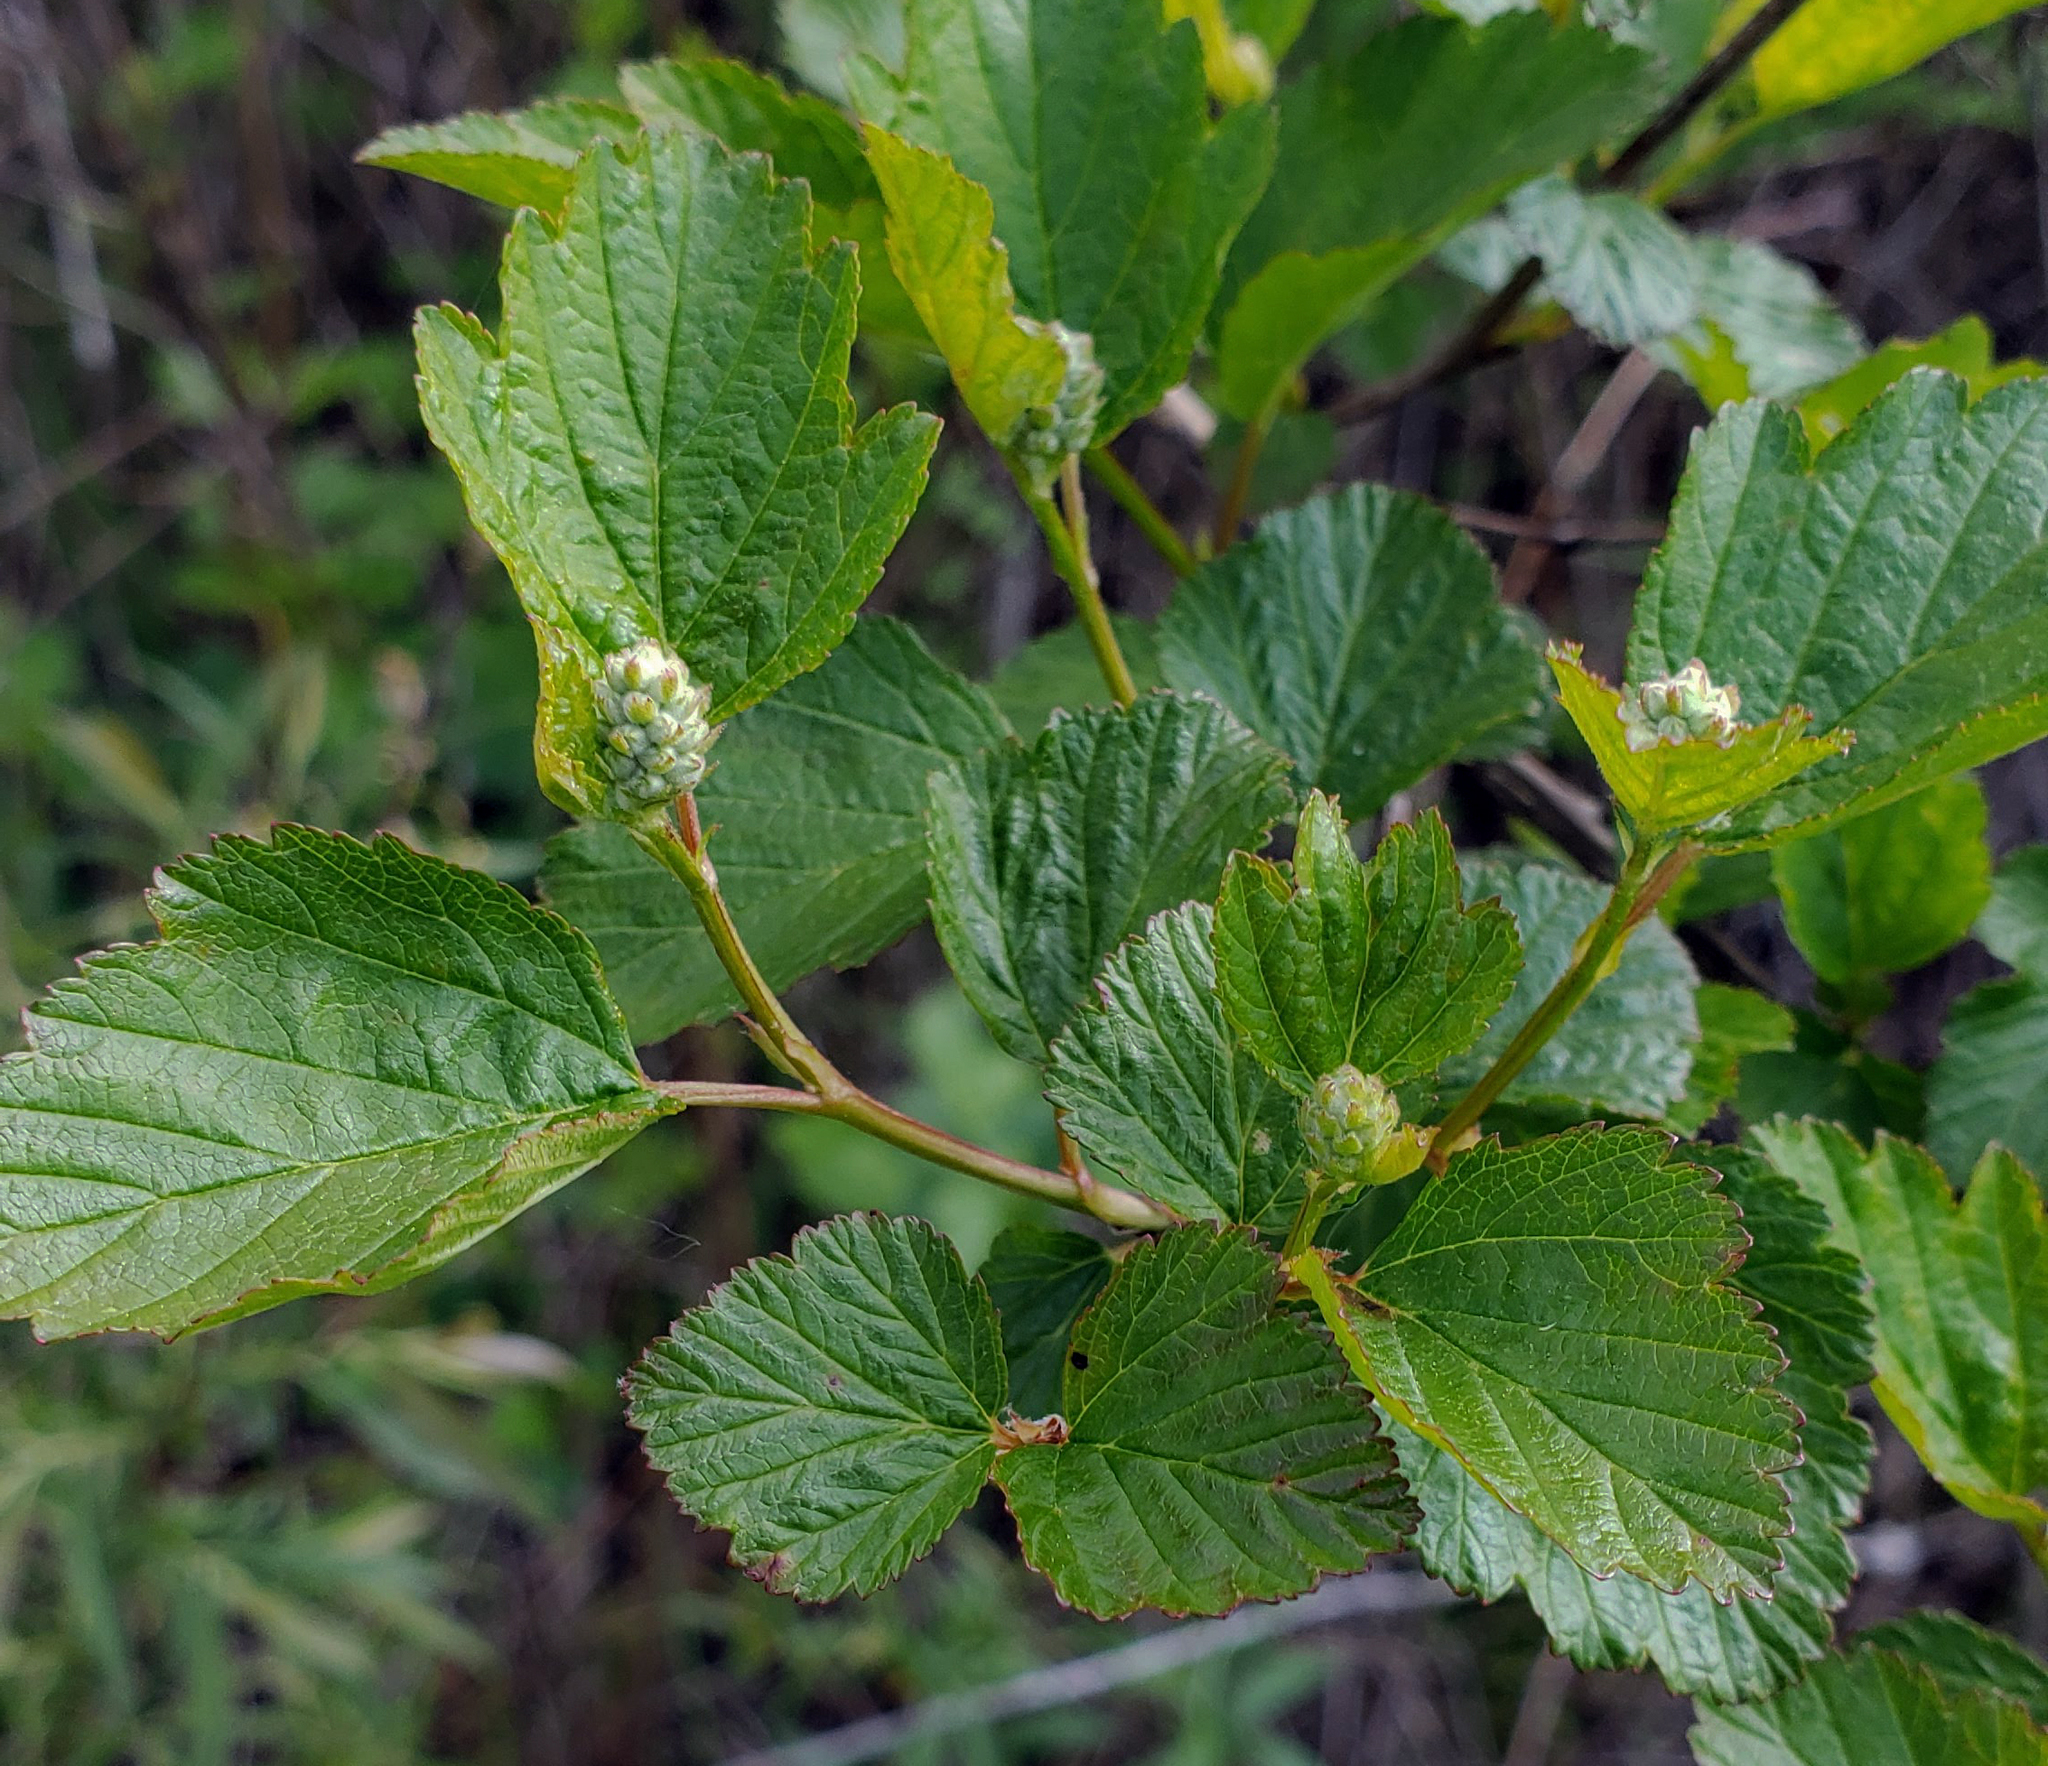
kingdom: Plantae
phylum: Tracheophyta
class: Magnoliopsida
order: Rosales
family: Rosaceae
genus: Physocarpus
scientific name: Physocarpus opulifolius
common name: Ninebark
